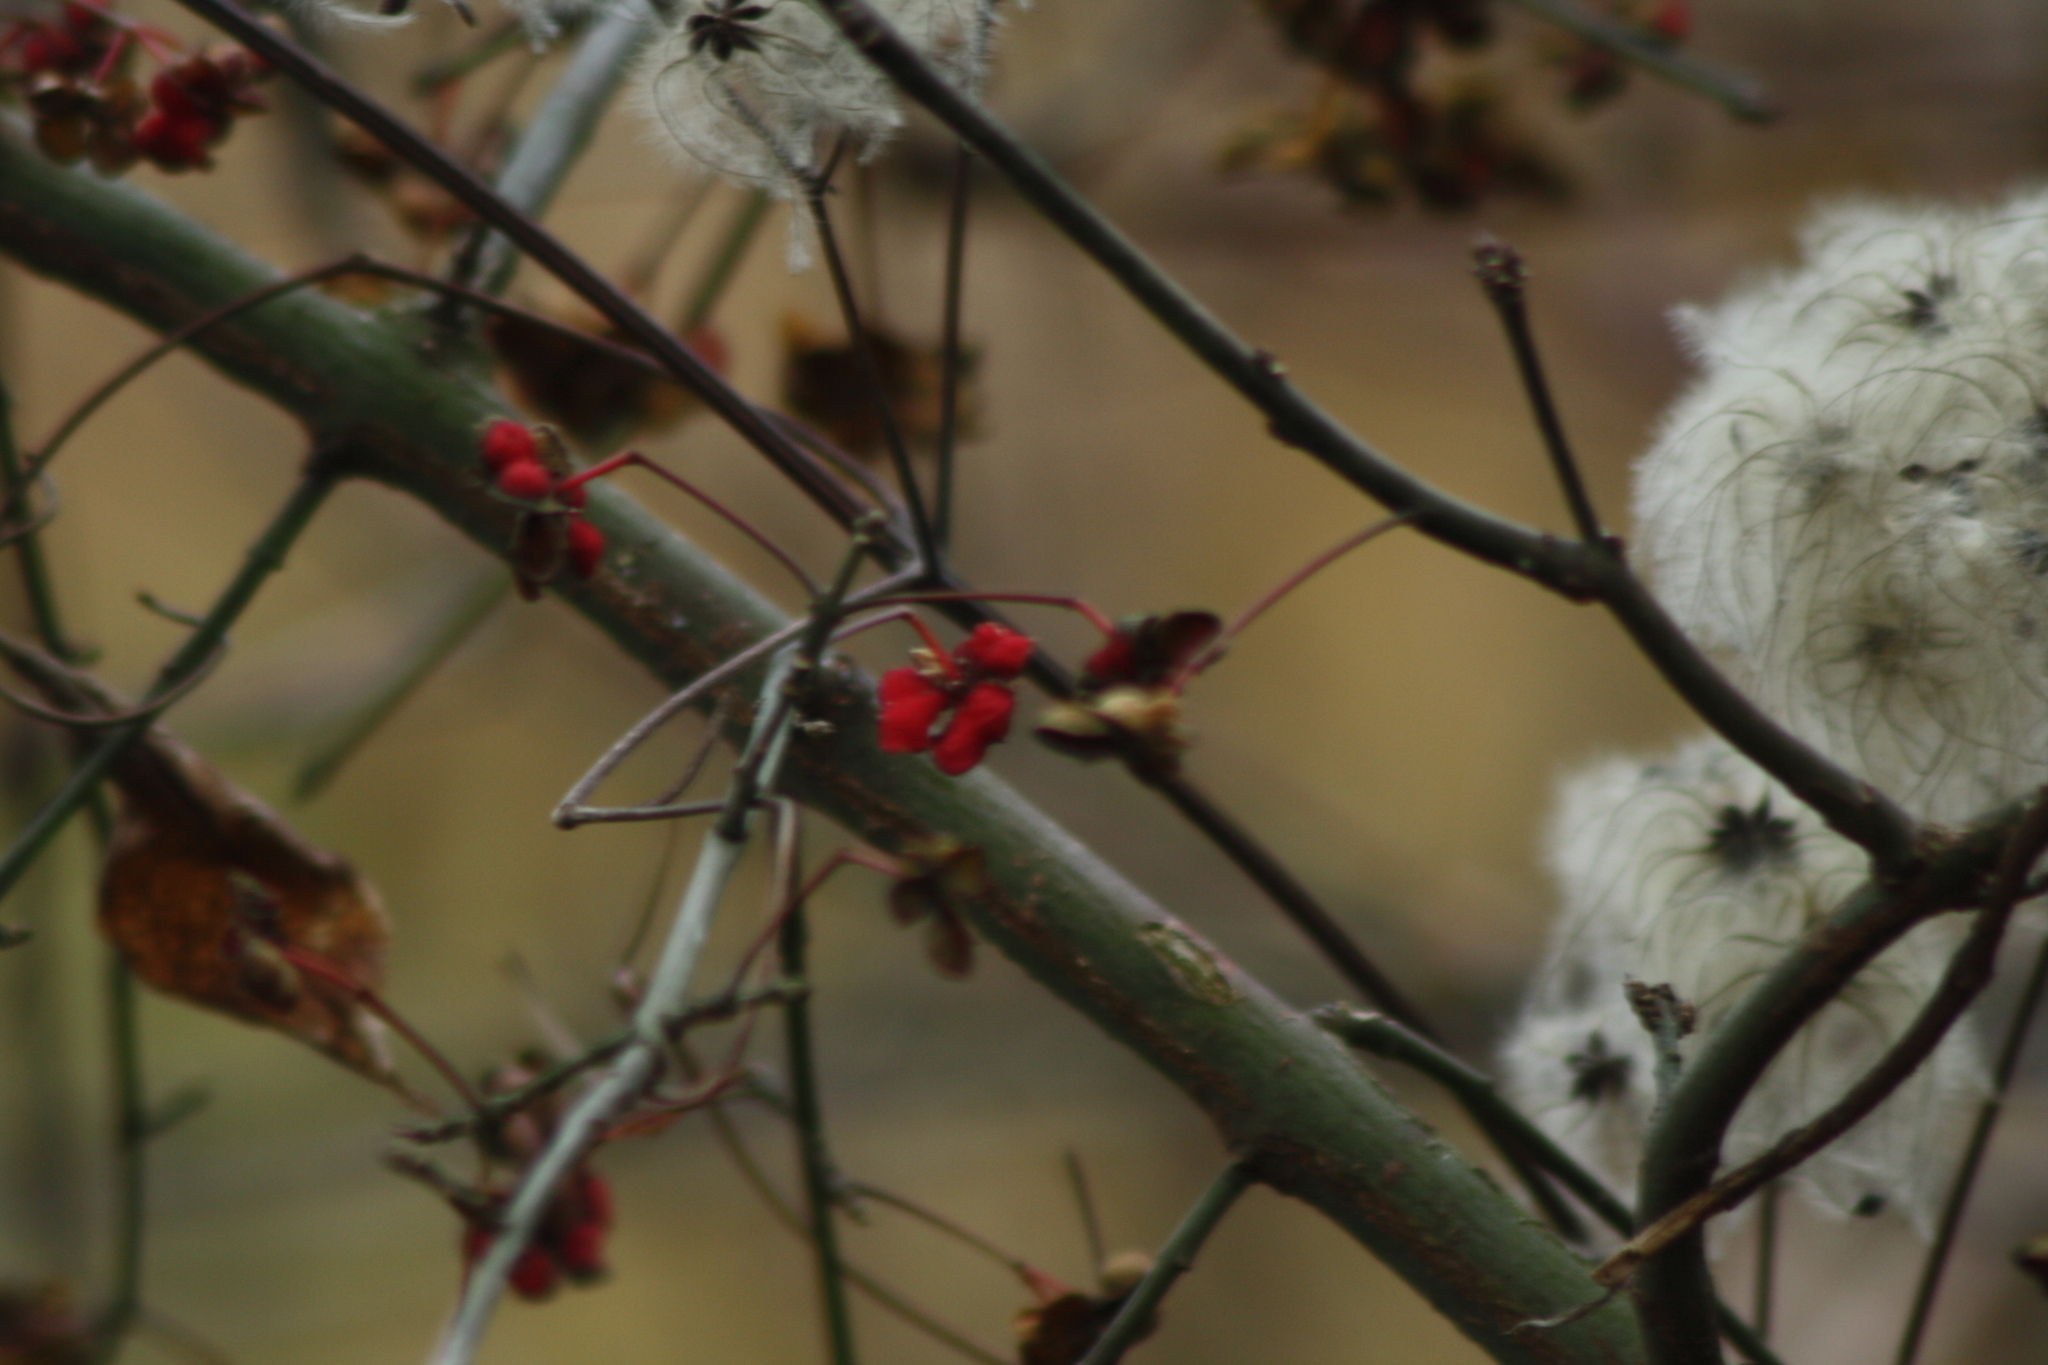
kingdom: Plantae
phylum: Tracheophyta
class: Magnoliopsida
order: Ranunculales
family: Ranunculaceae
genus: Clematis
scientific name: Clematis vitalba
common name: Evergreen clematis
